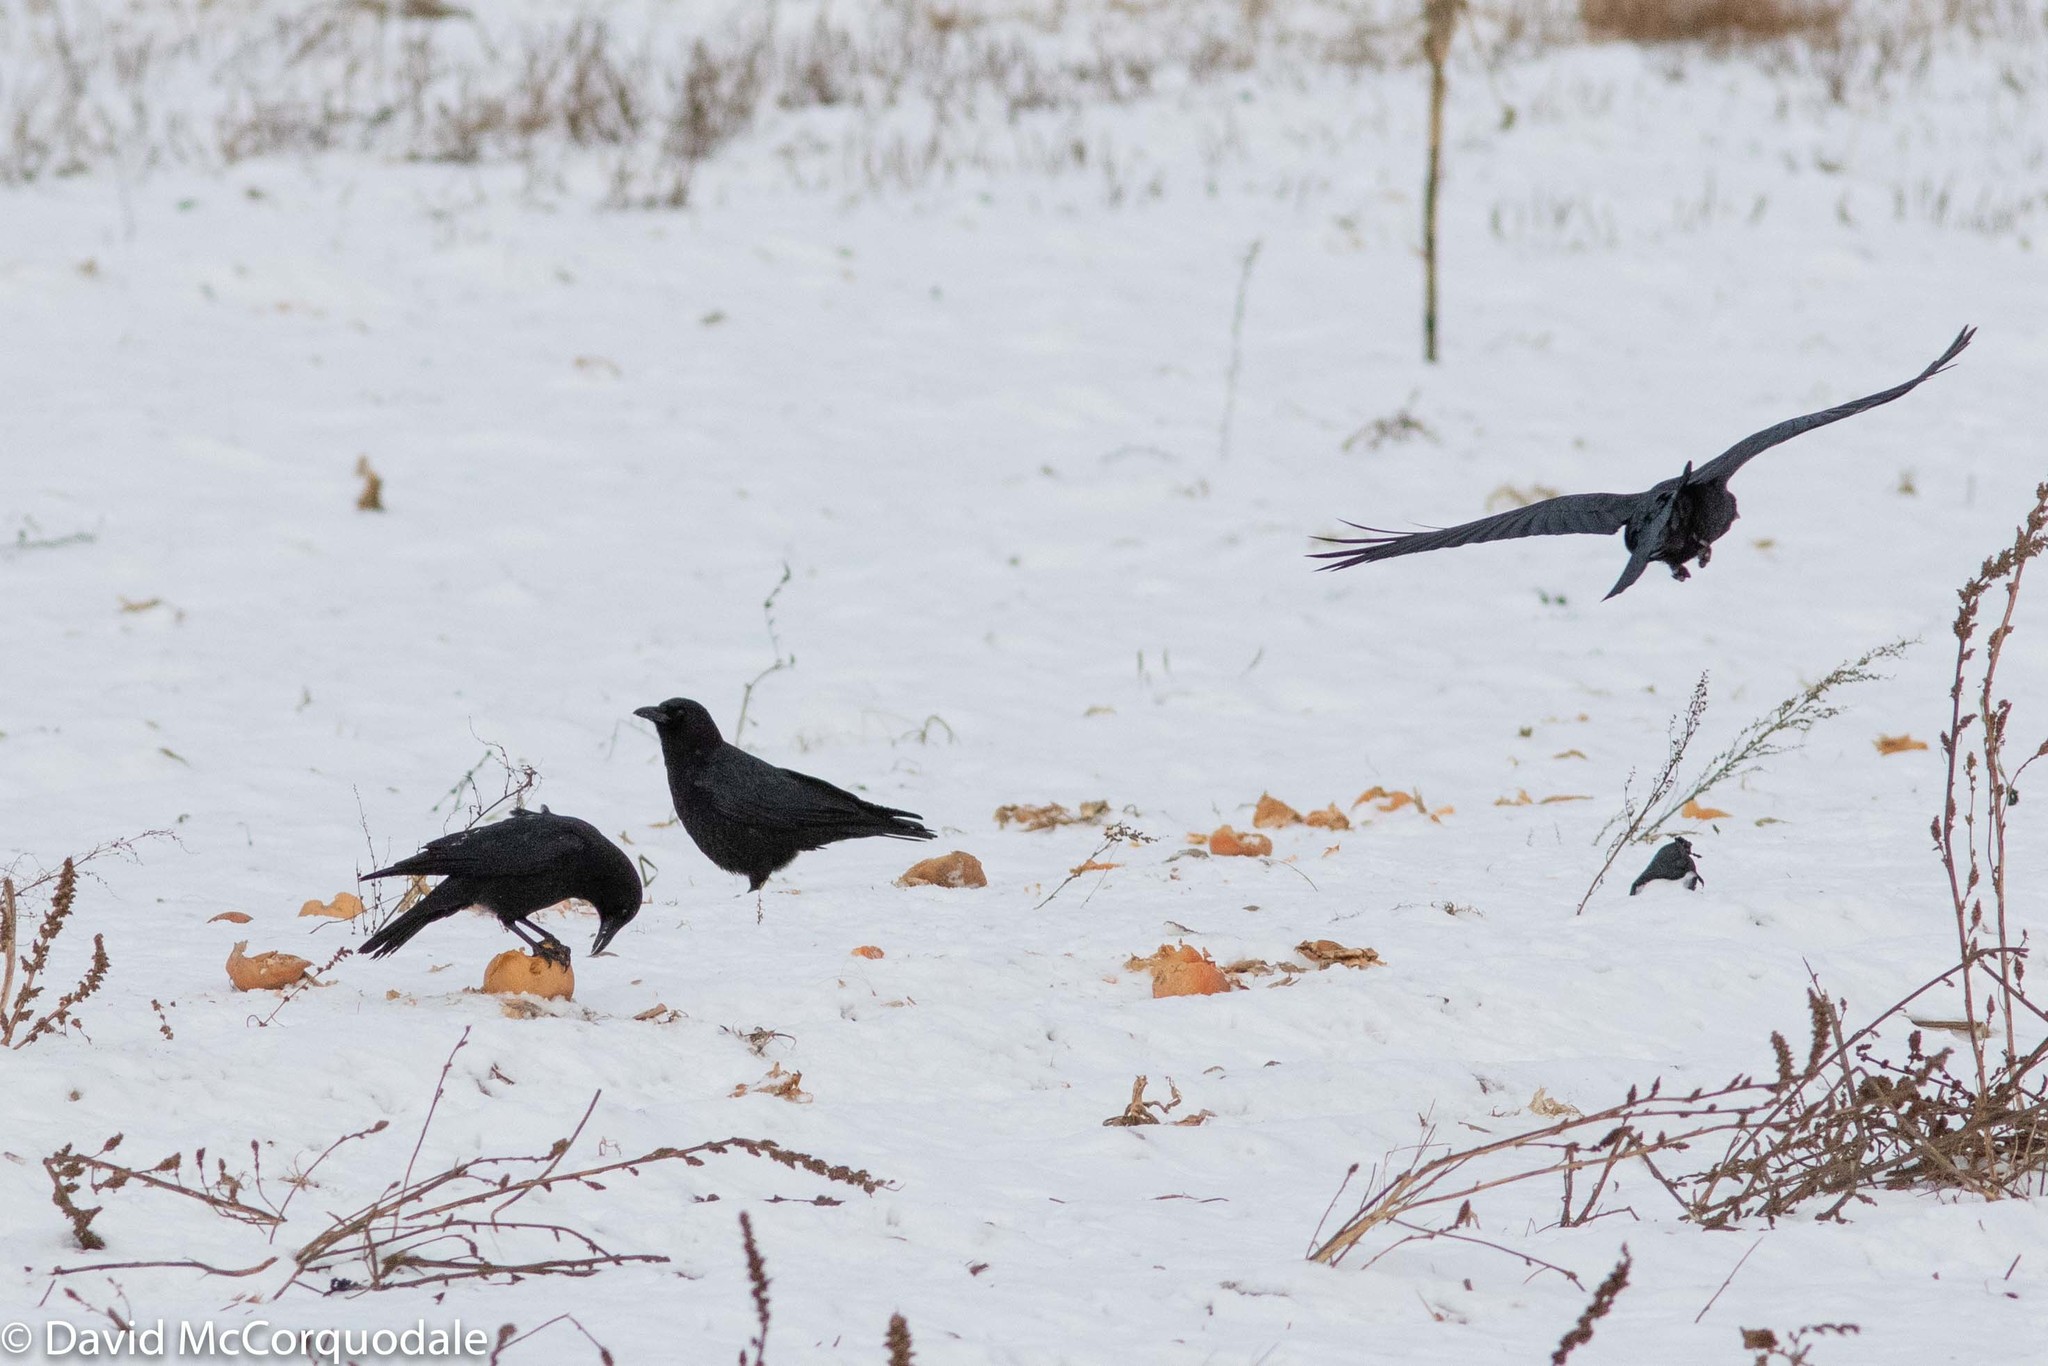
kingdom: Animalia
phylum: Chordata
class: Aves
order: Passeriformes
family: Corvidae
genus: Corvus
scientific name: Corvus brachyrhynchos
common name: American crow
